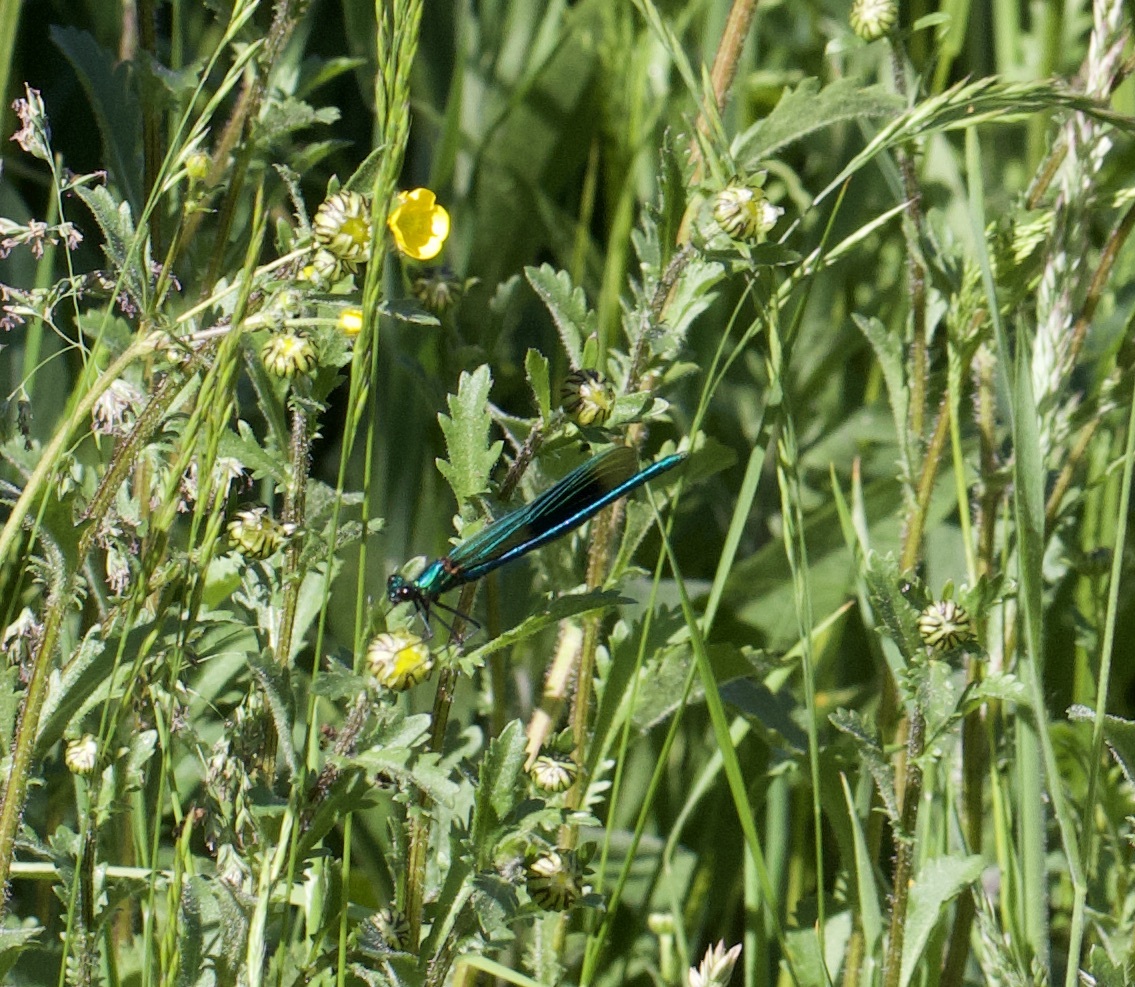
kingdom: Animalia
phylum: Arthropoda
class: Insecta
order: Odonata
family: Calopterygidae
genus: Calopteryx
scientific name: Calopteryx splendens
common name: Banded demoiselle
